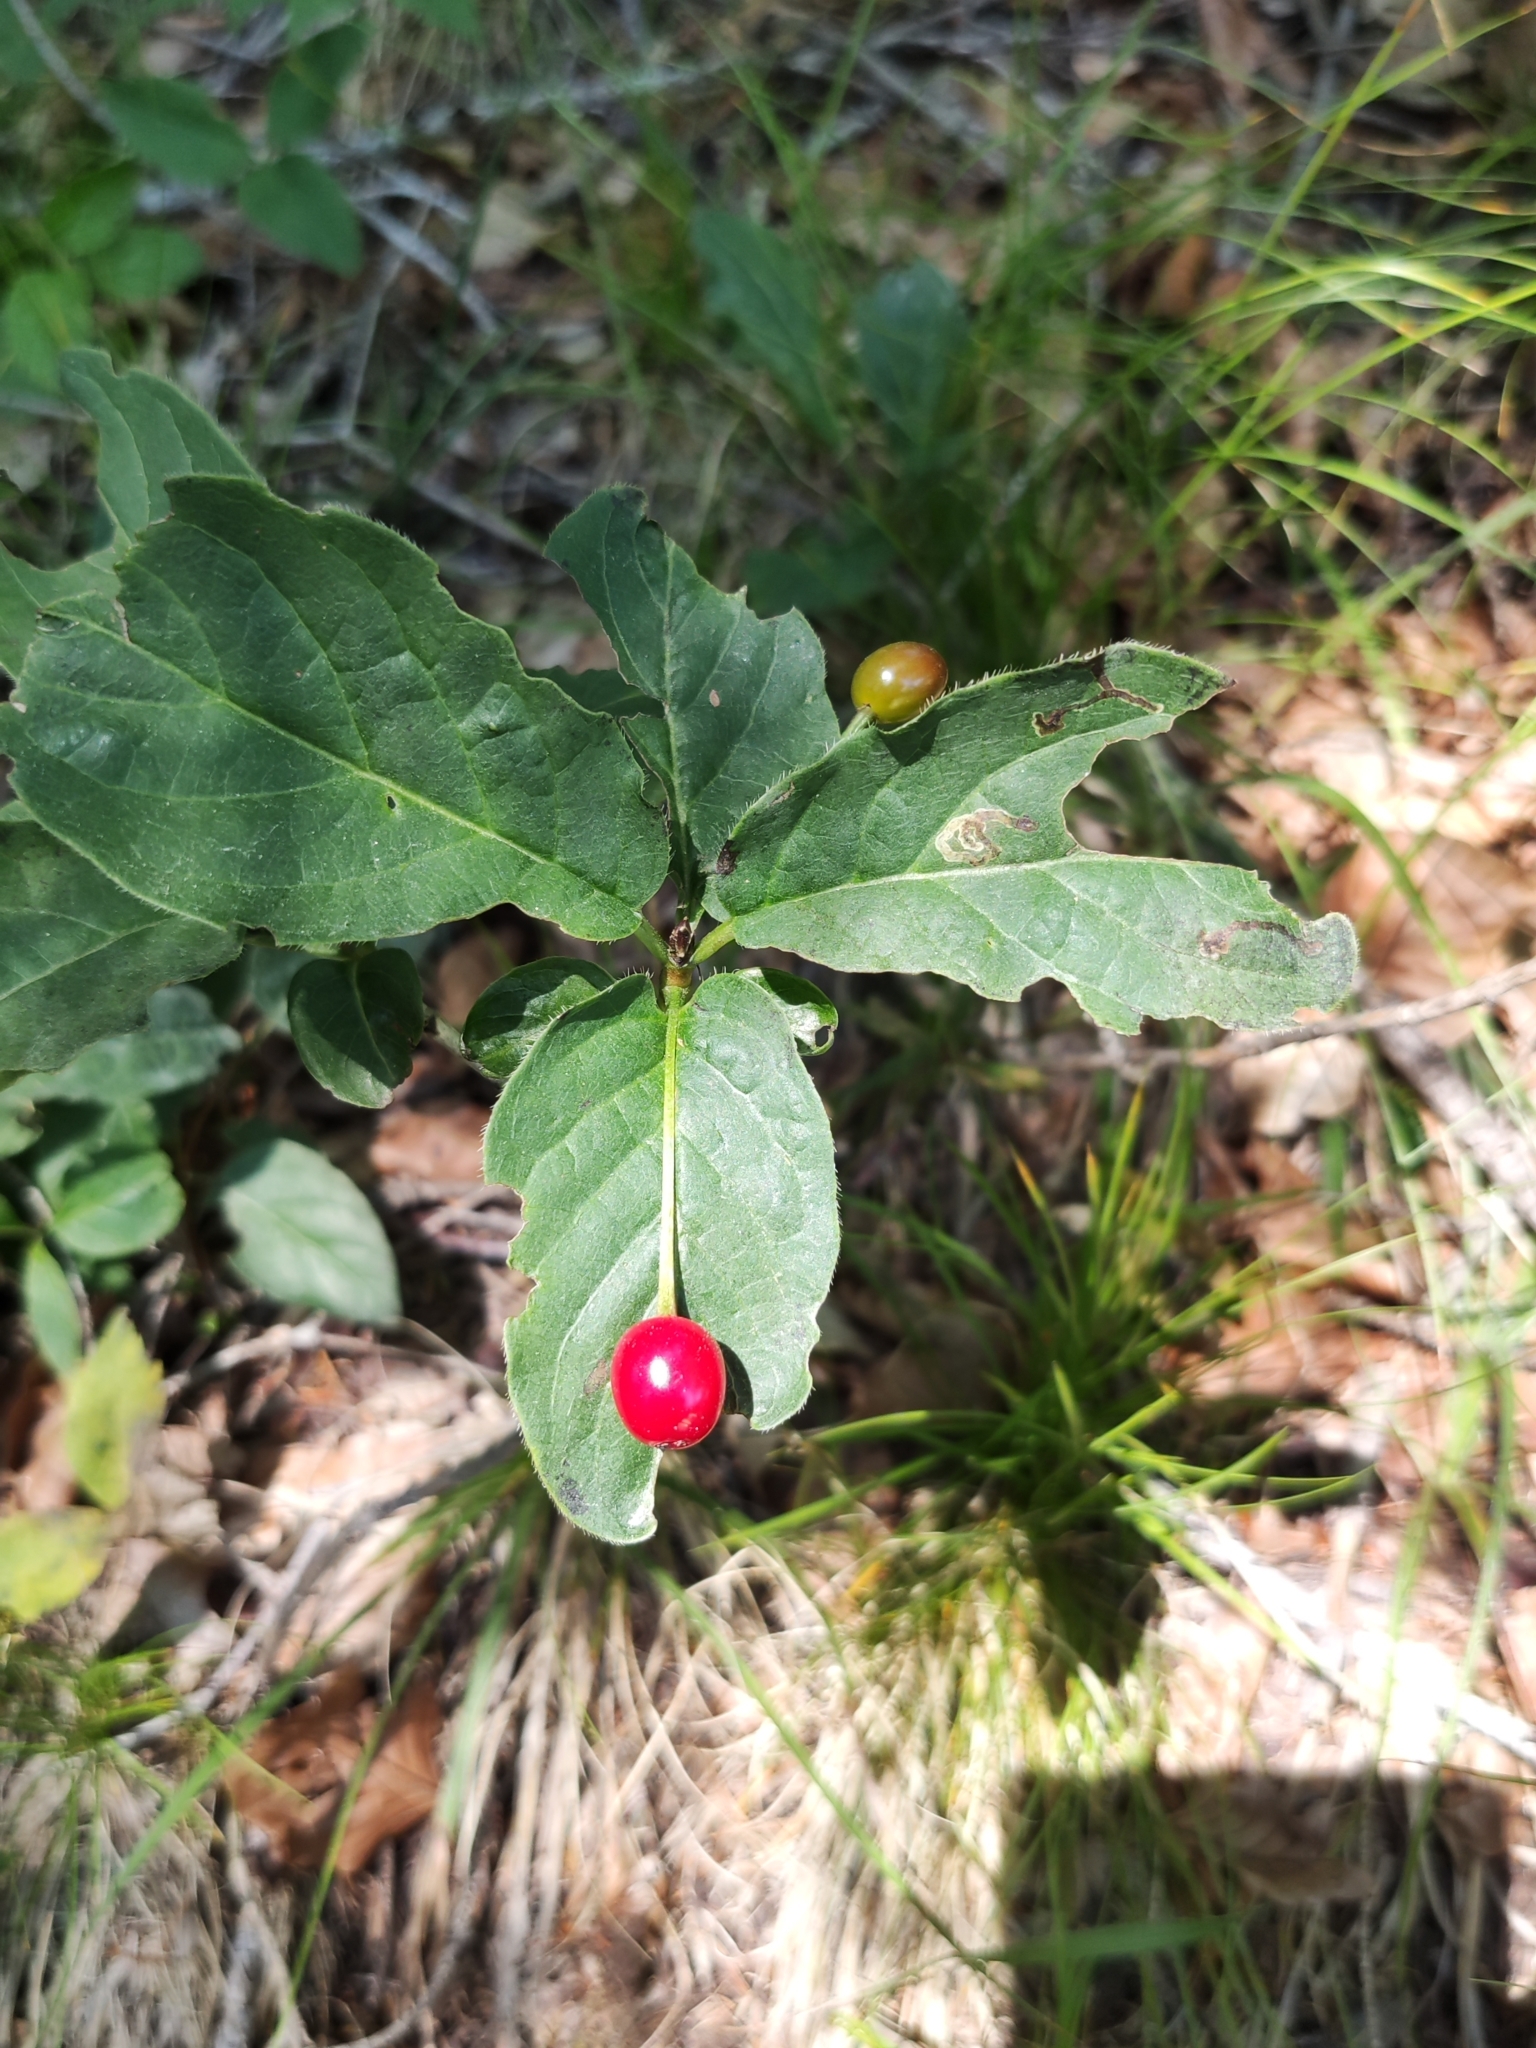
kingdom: Plantae
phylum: Tracheophyta
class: Magnoliopsida
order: Dipsacales
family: Caprifoliaceae
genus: Lonicera
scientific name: Lonicera alpigena
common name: Alpine honeysuckle
